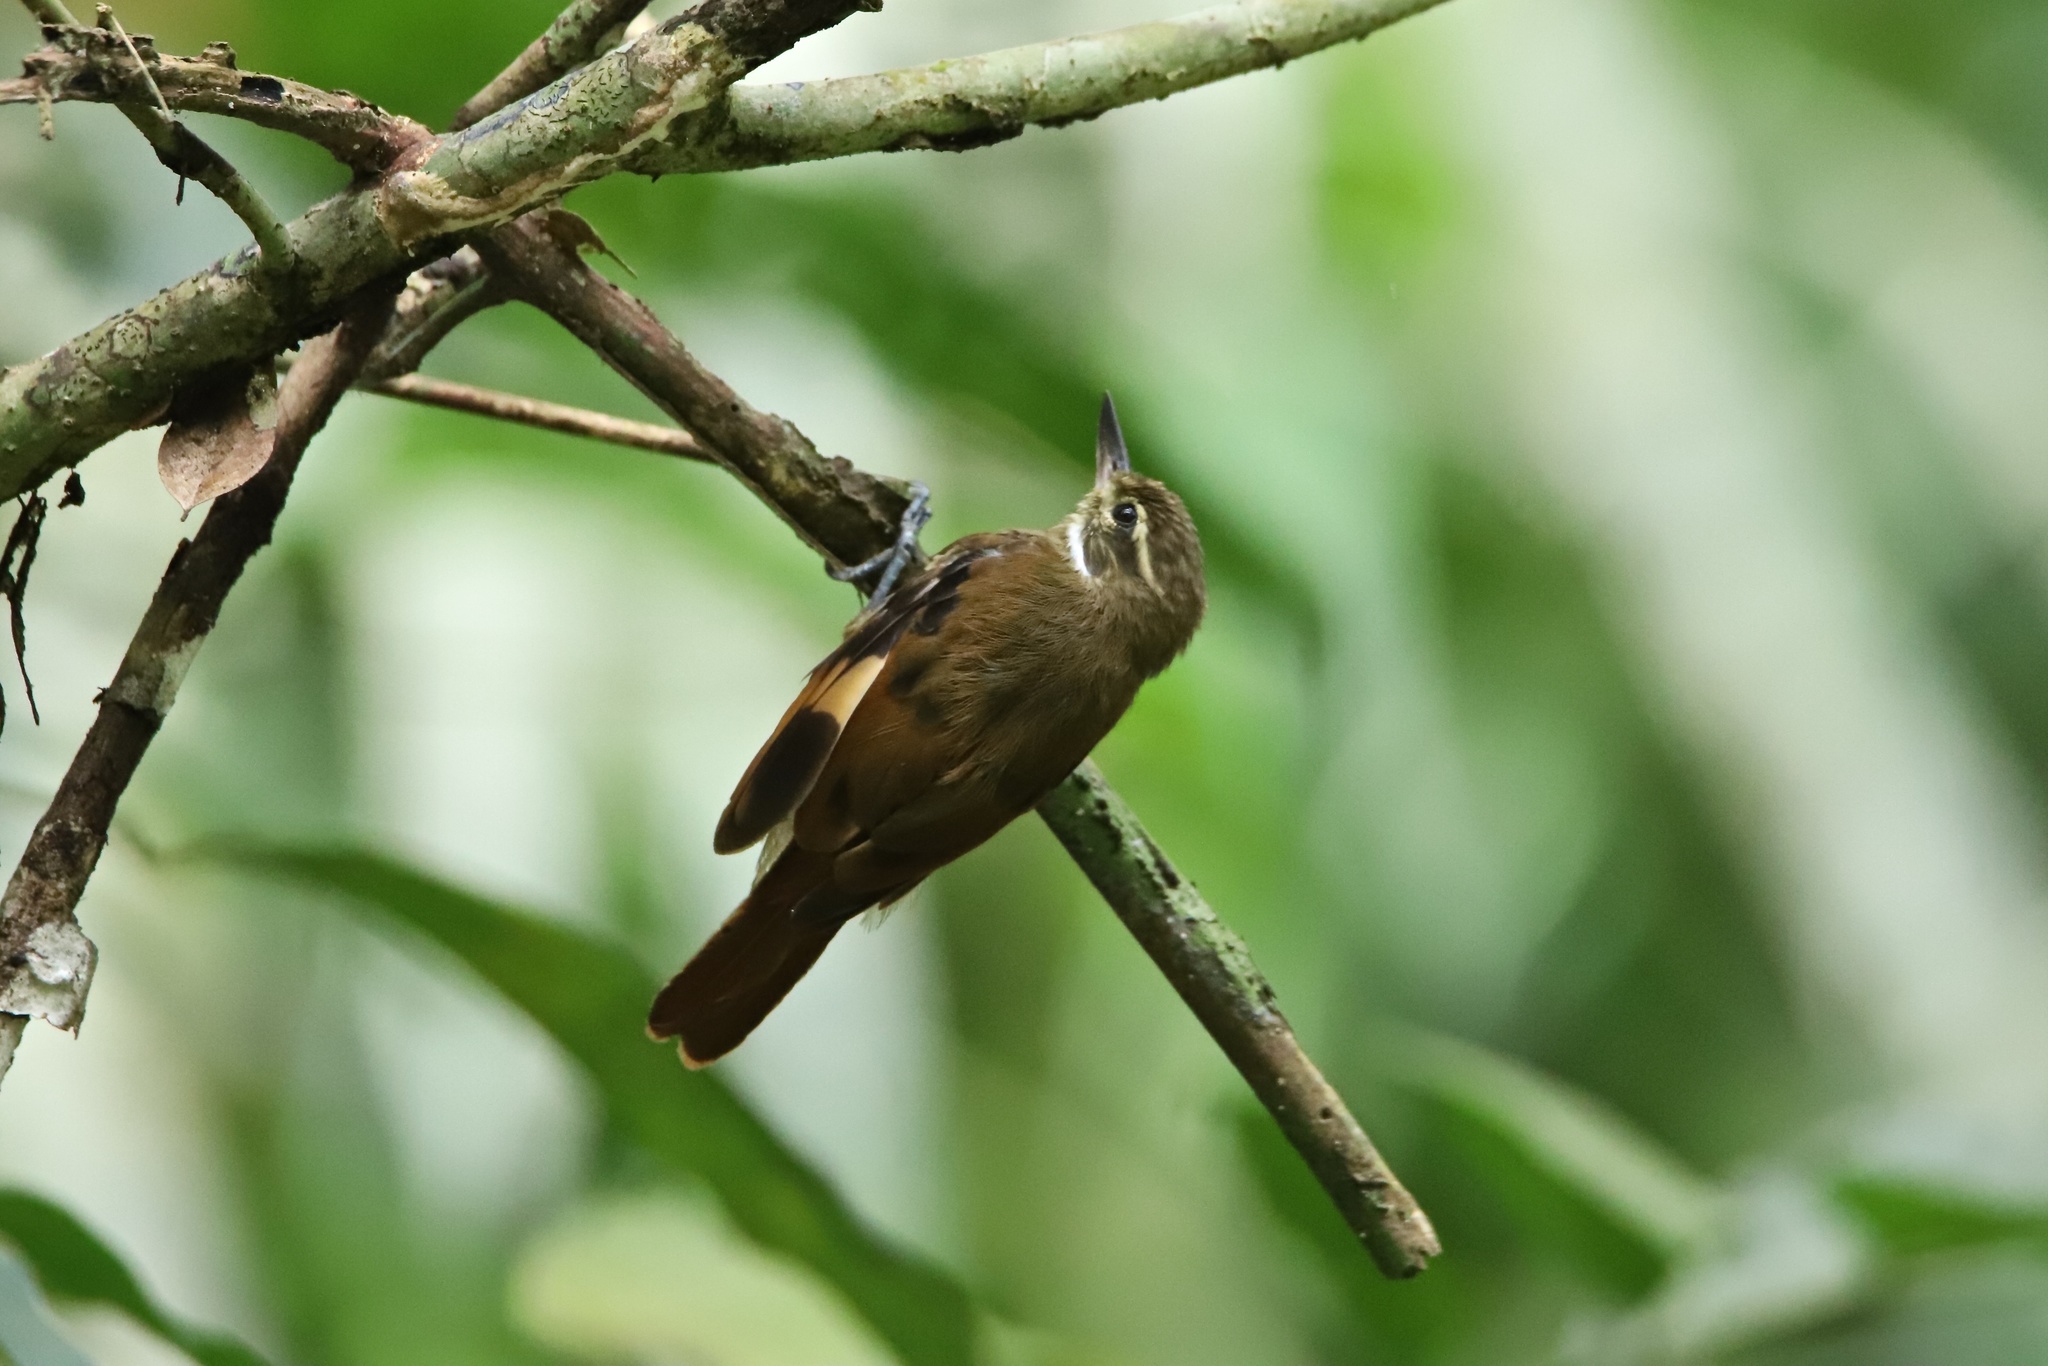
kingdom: Animalia
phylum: Chordata
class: Aves
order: Passeriformes
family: Furnariidae
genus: Xenops
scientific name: Xenops minutus
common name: Plain xenops
